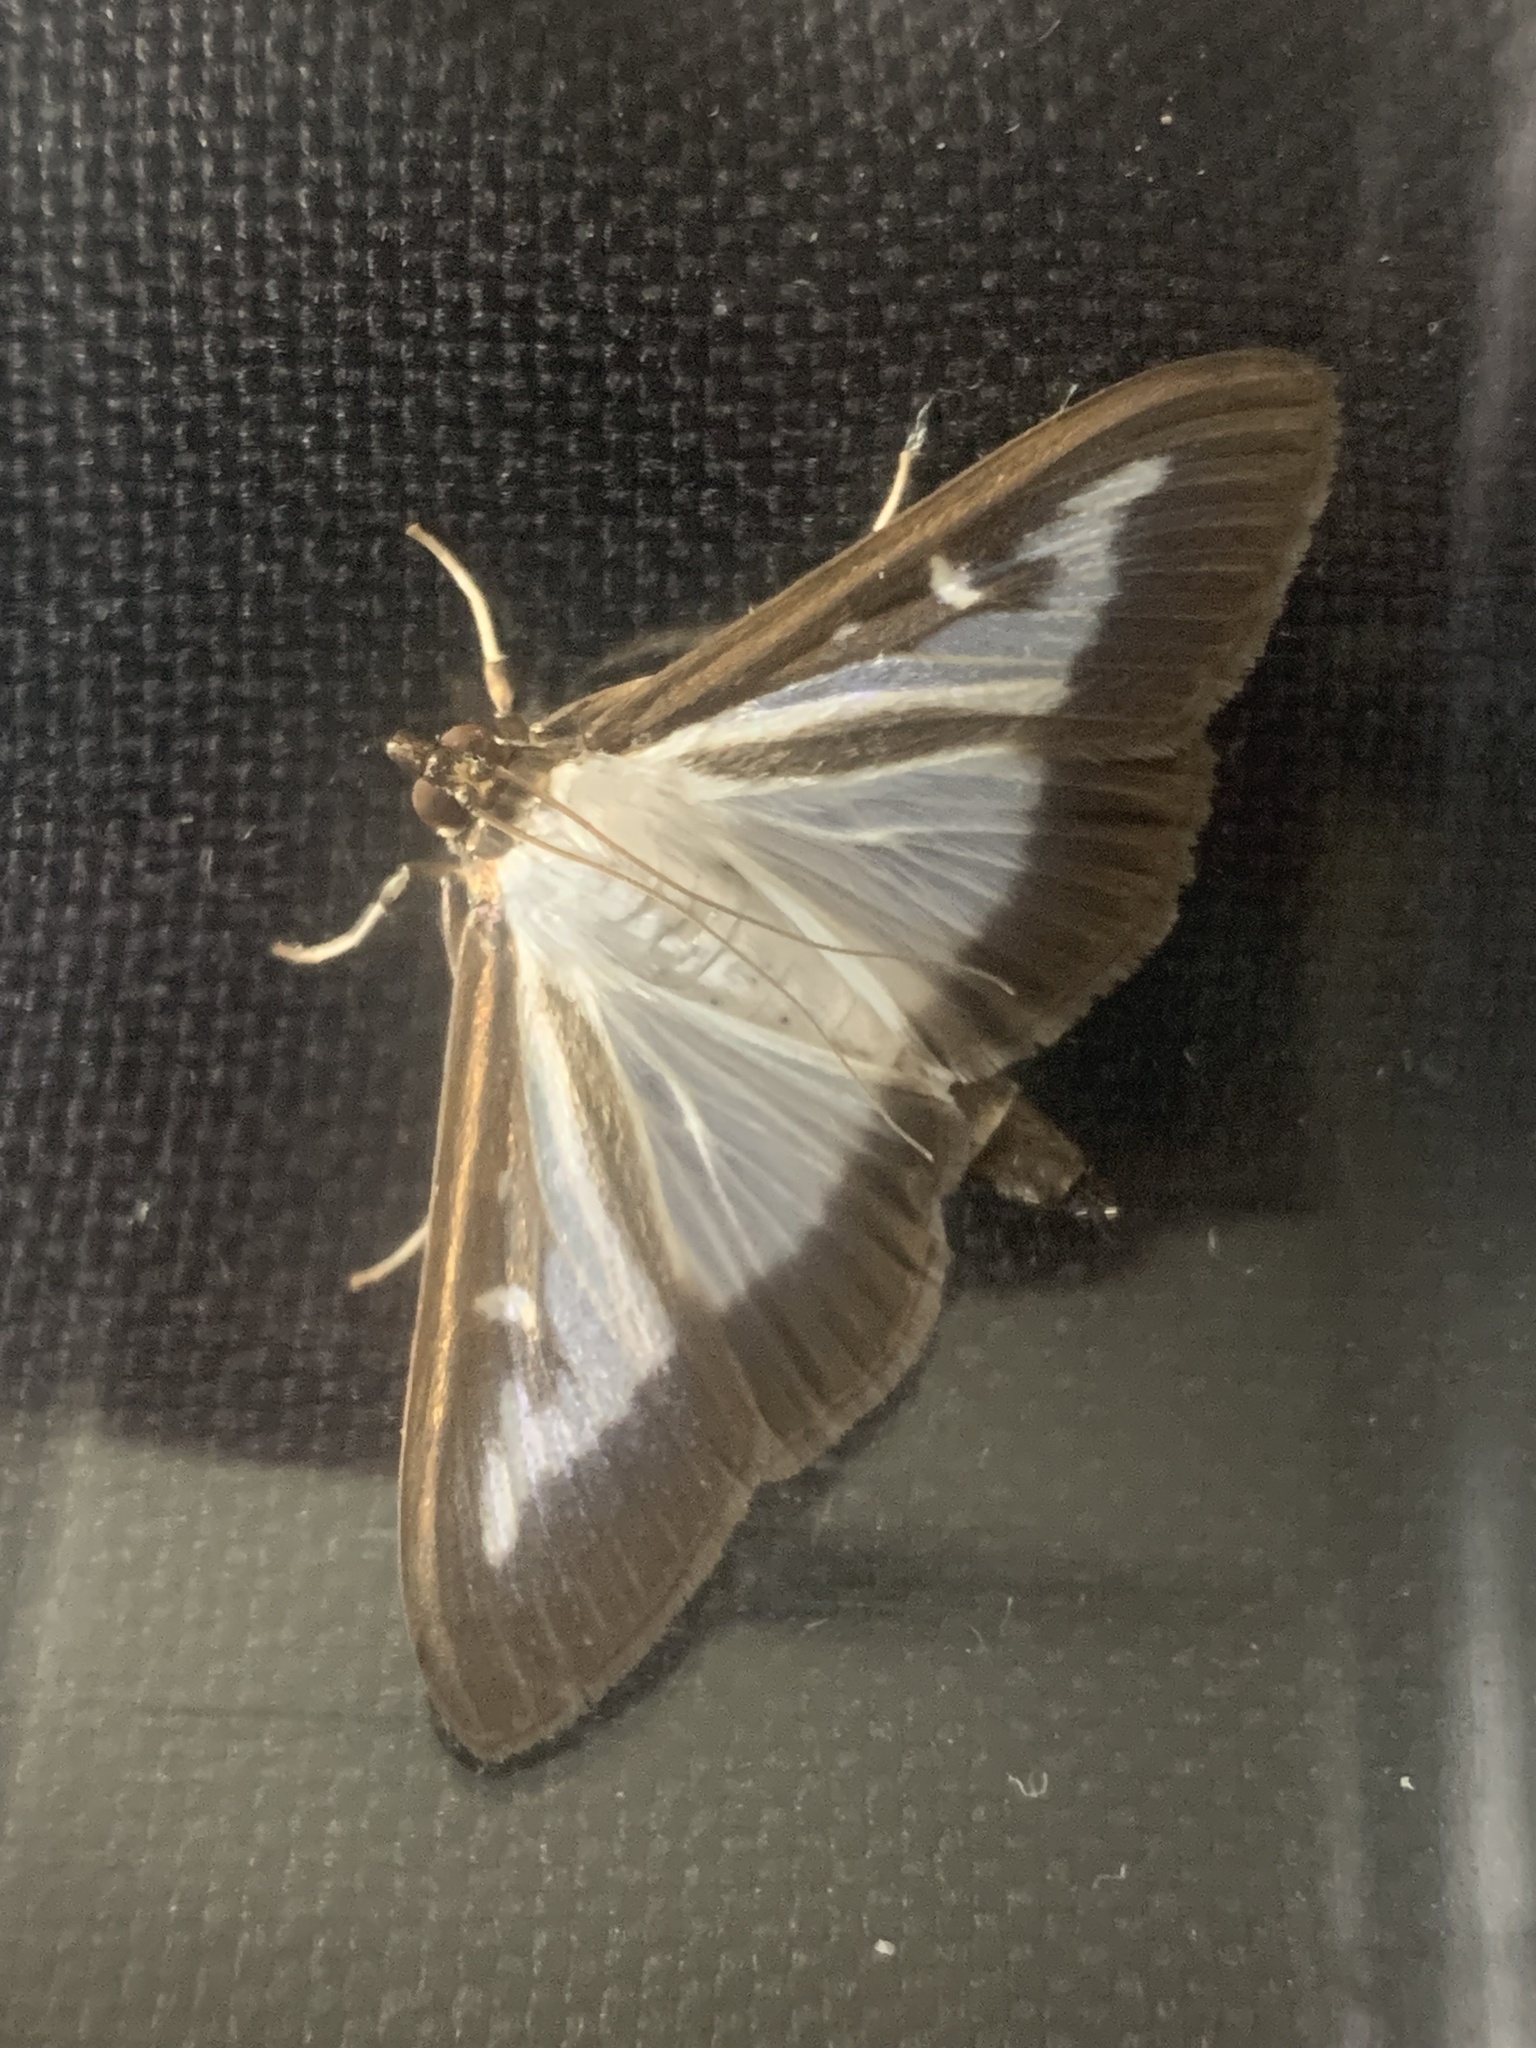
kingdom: Animalia
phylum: Arthropoda
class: Insecta
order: Lepidoptera
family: Crambidae
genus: Cydalima
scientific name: Cydalima perspectalis
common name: Box tree moth
